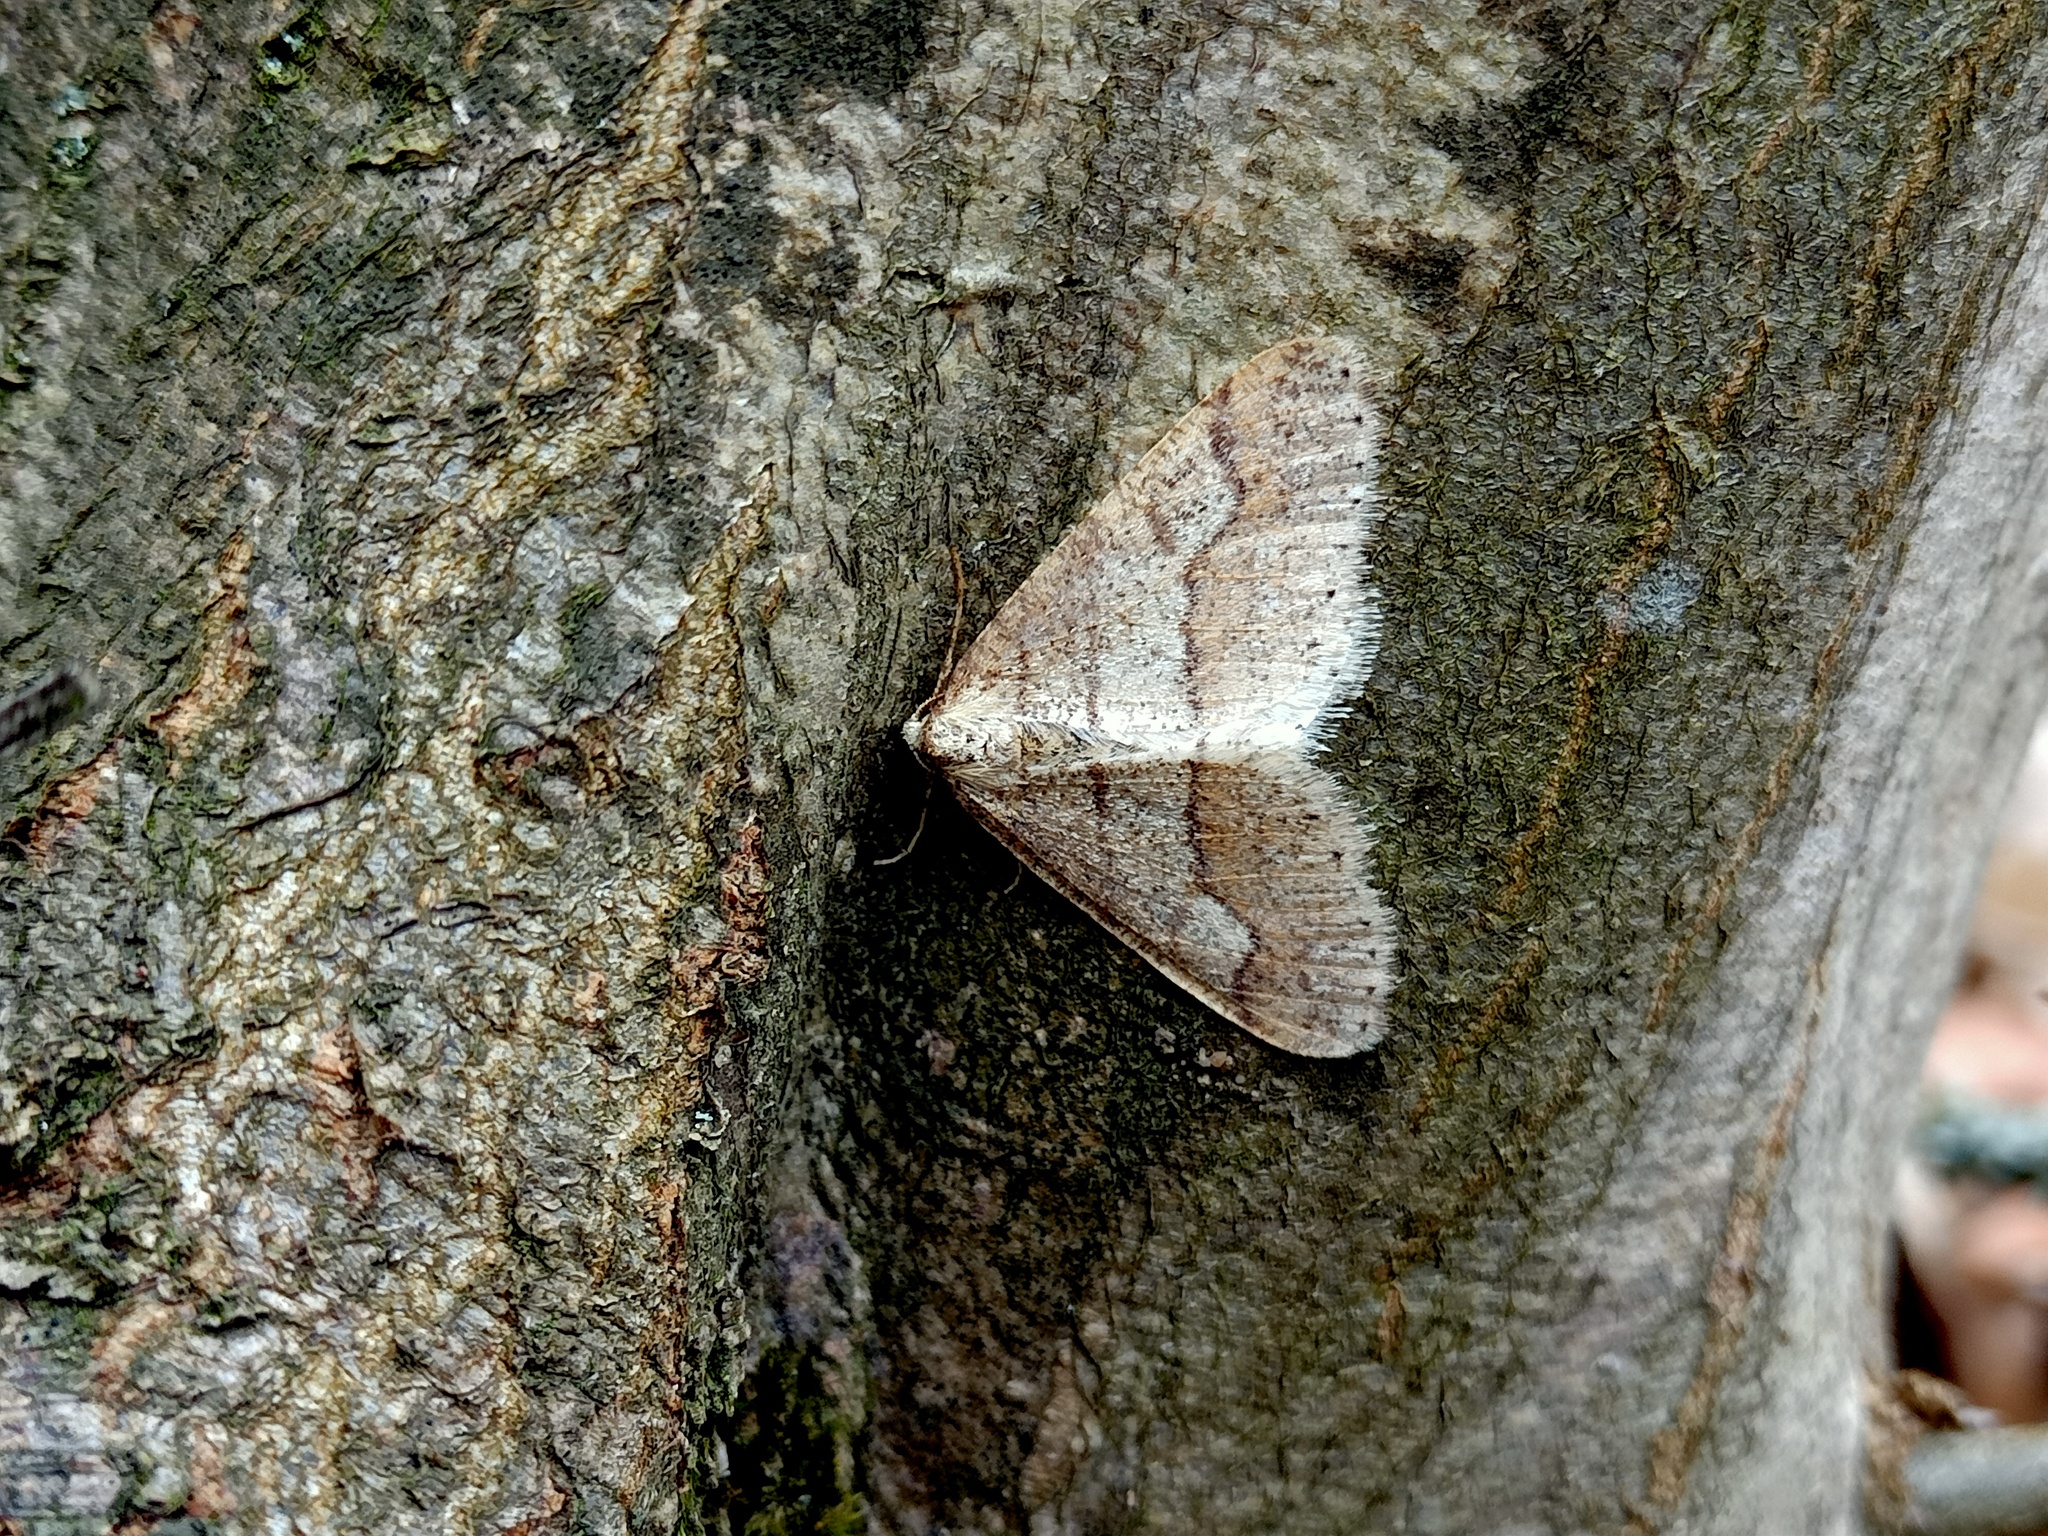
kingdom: Animalia
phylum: Arthropoda
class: Insecta
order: Lepidoptera
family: Geometridae
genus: Agriopis
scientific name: Agriopis marginaria
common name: Dotted border
